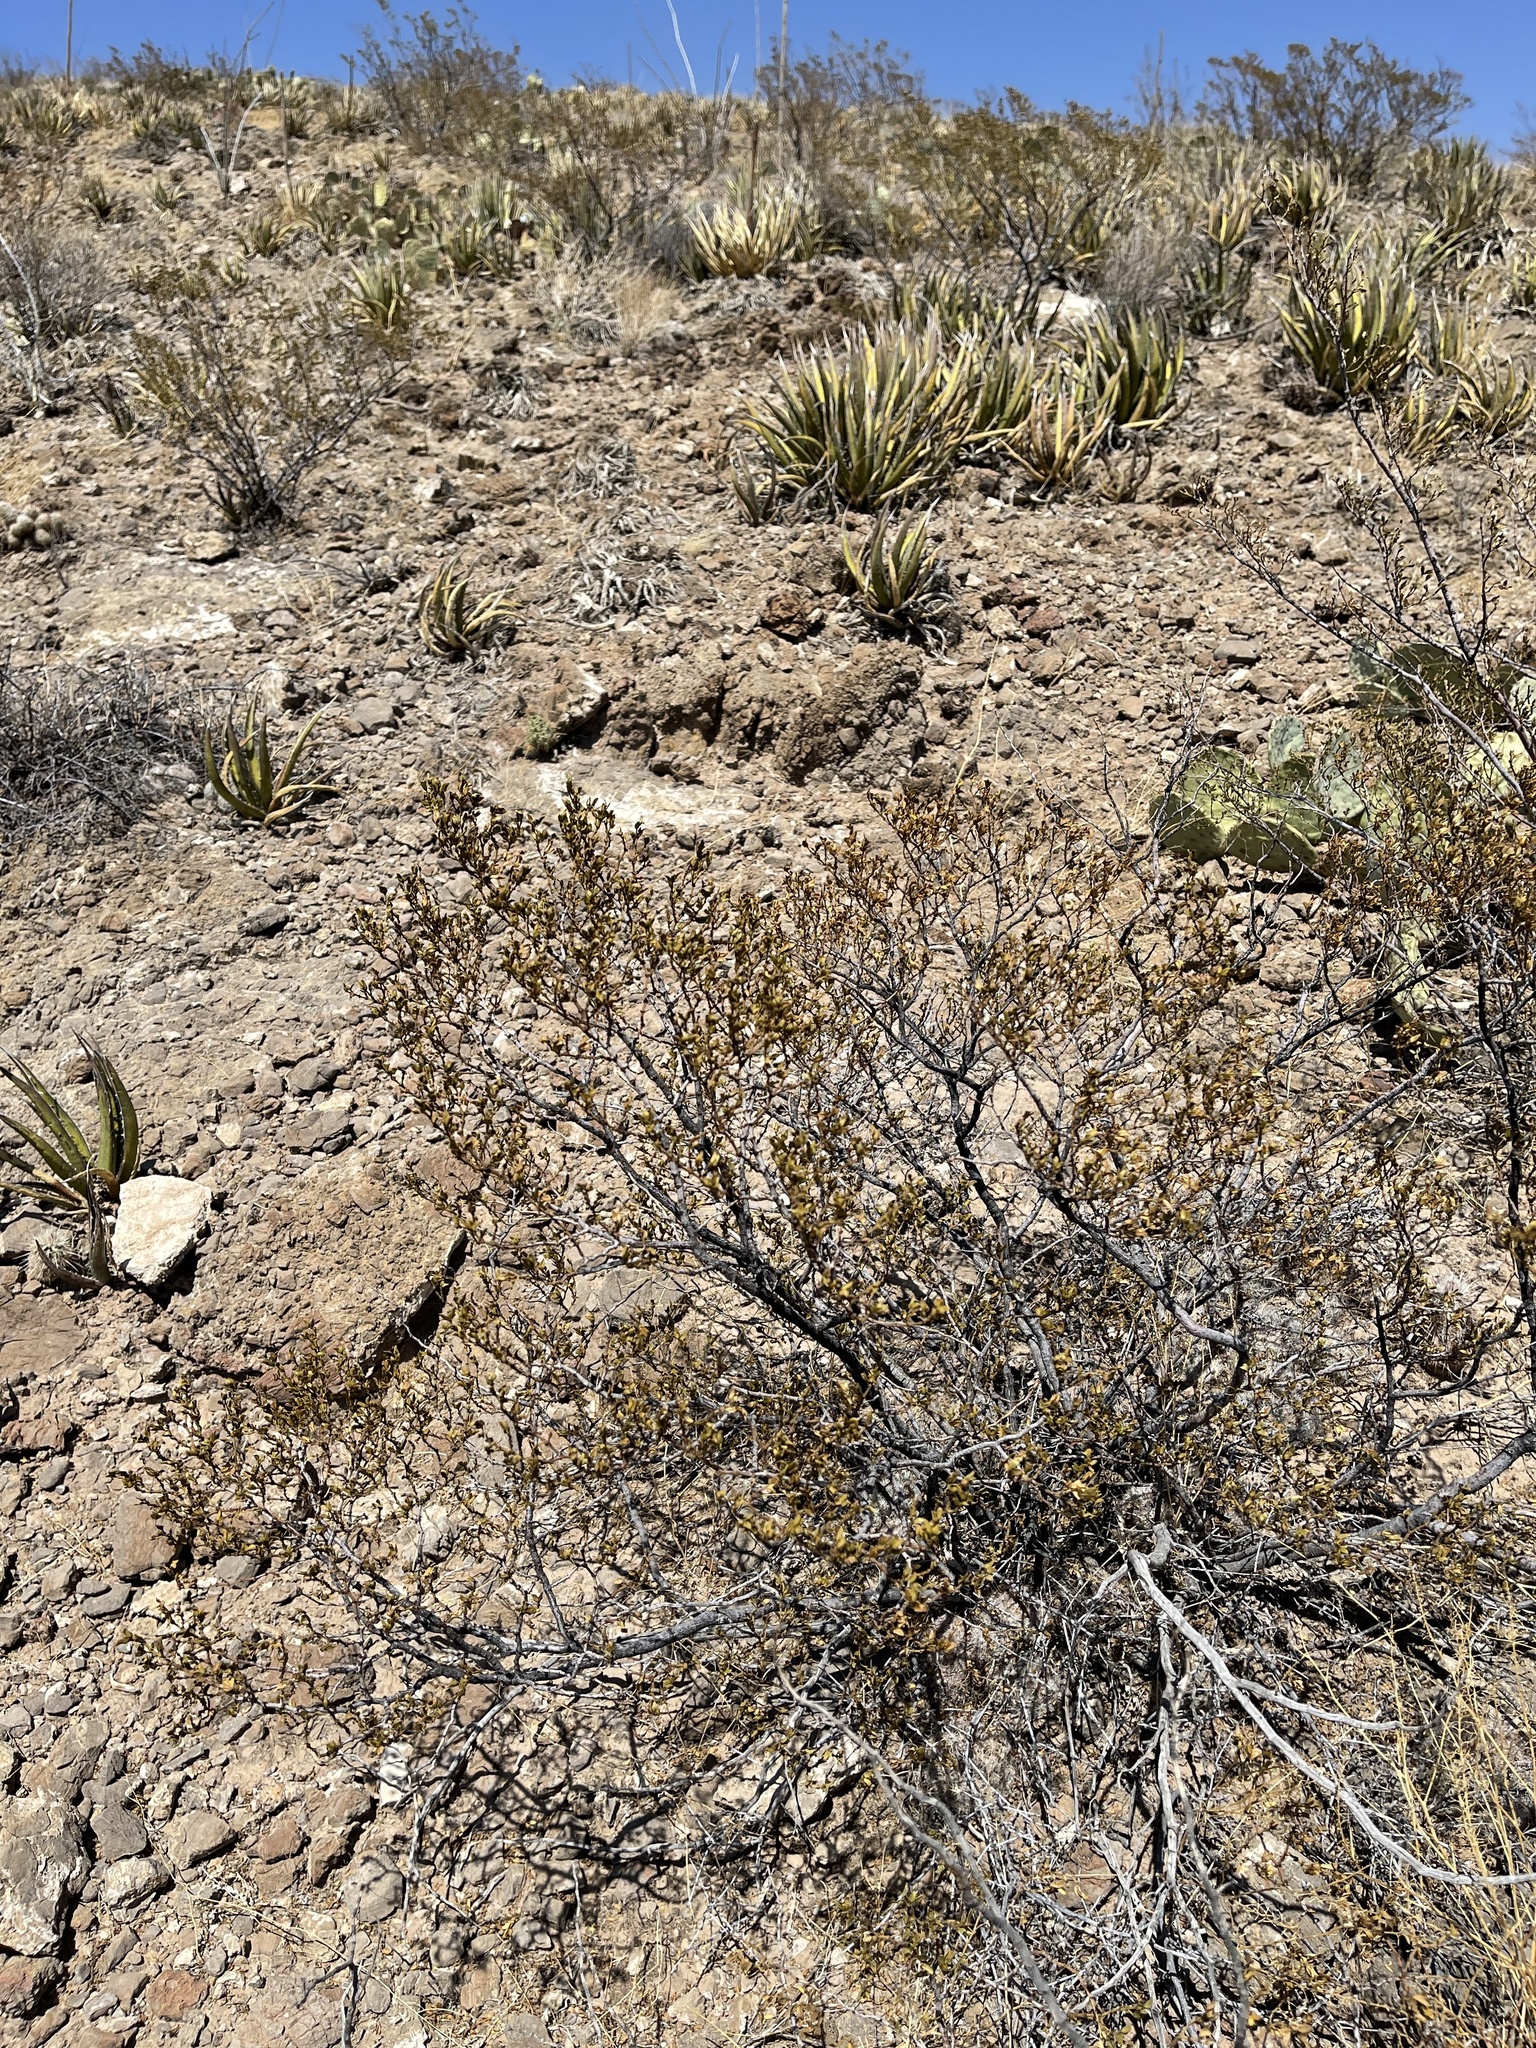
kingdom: Plantae
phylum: Tracheophyta
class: Magnoliopsida
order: Zygophyllales
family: Zygophyllaceae
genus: Larrea
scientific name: Larrea tridentata
